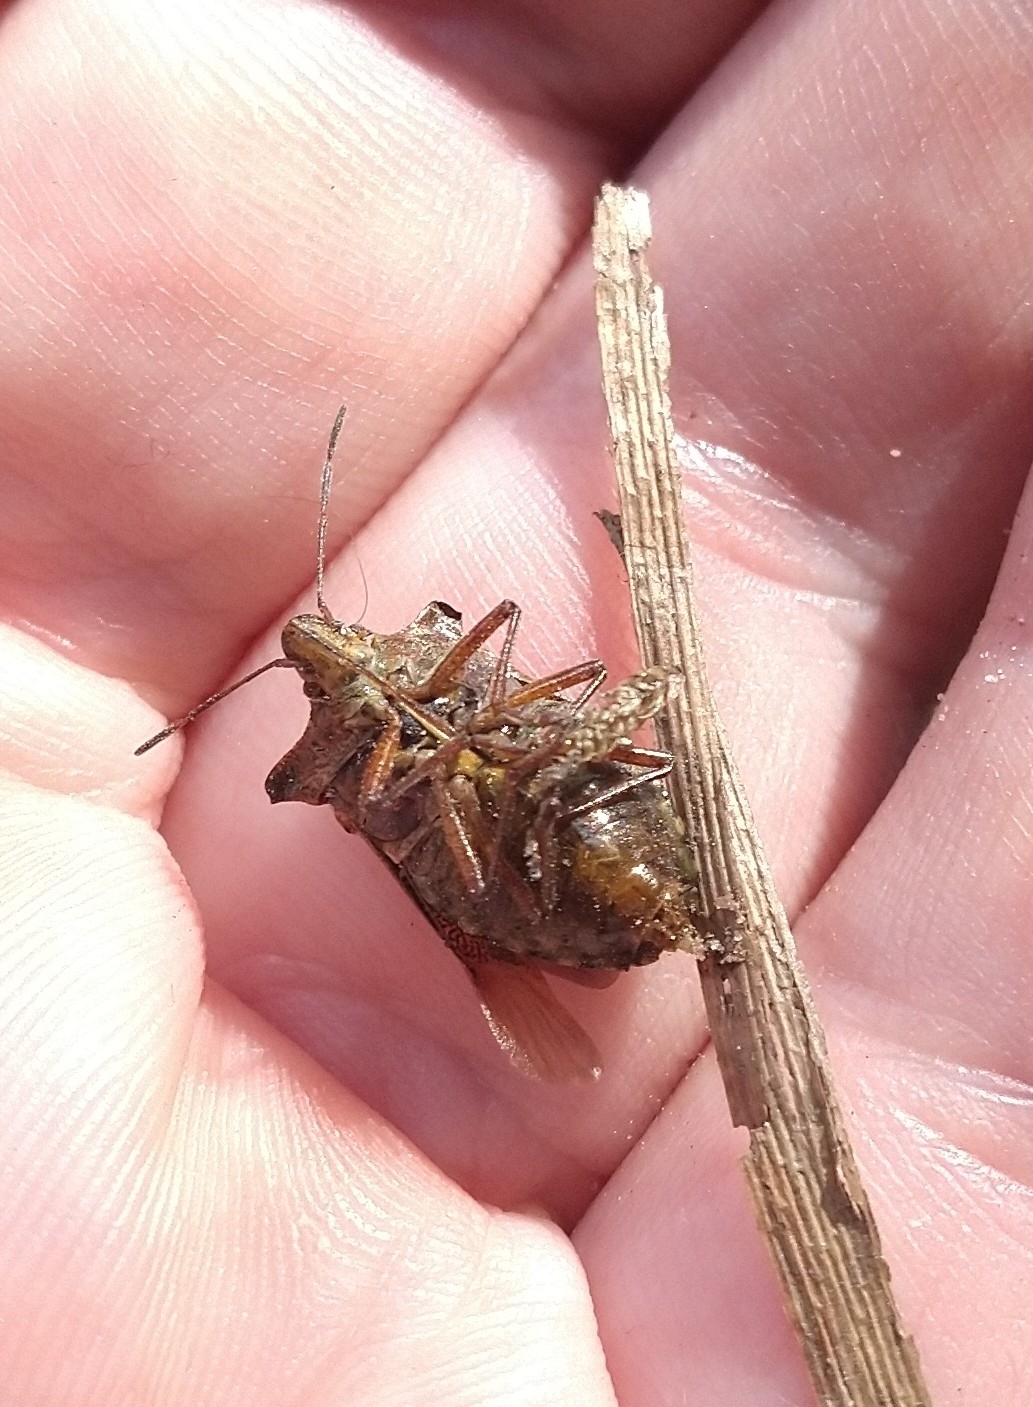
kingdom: Animalia
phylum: Arthropoda
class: Insecta
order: Hemiptera
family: Pentatomidae
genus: Pentatoma
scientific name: Pentatoma rufipes
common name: Forest bug
